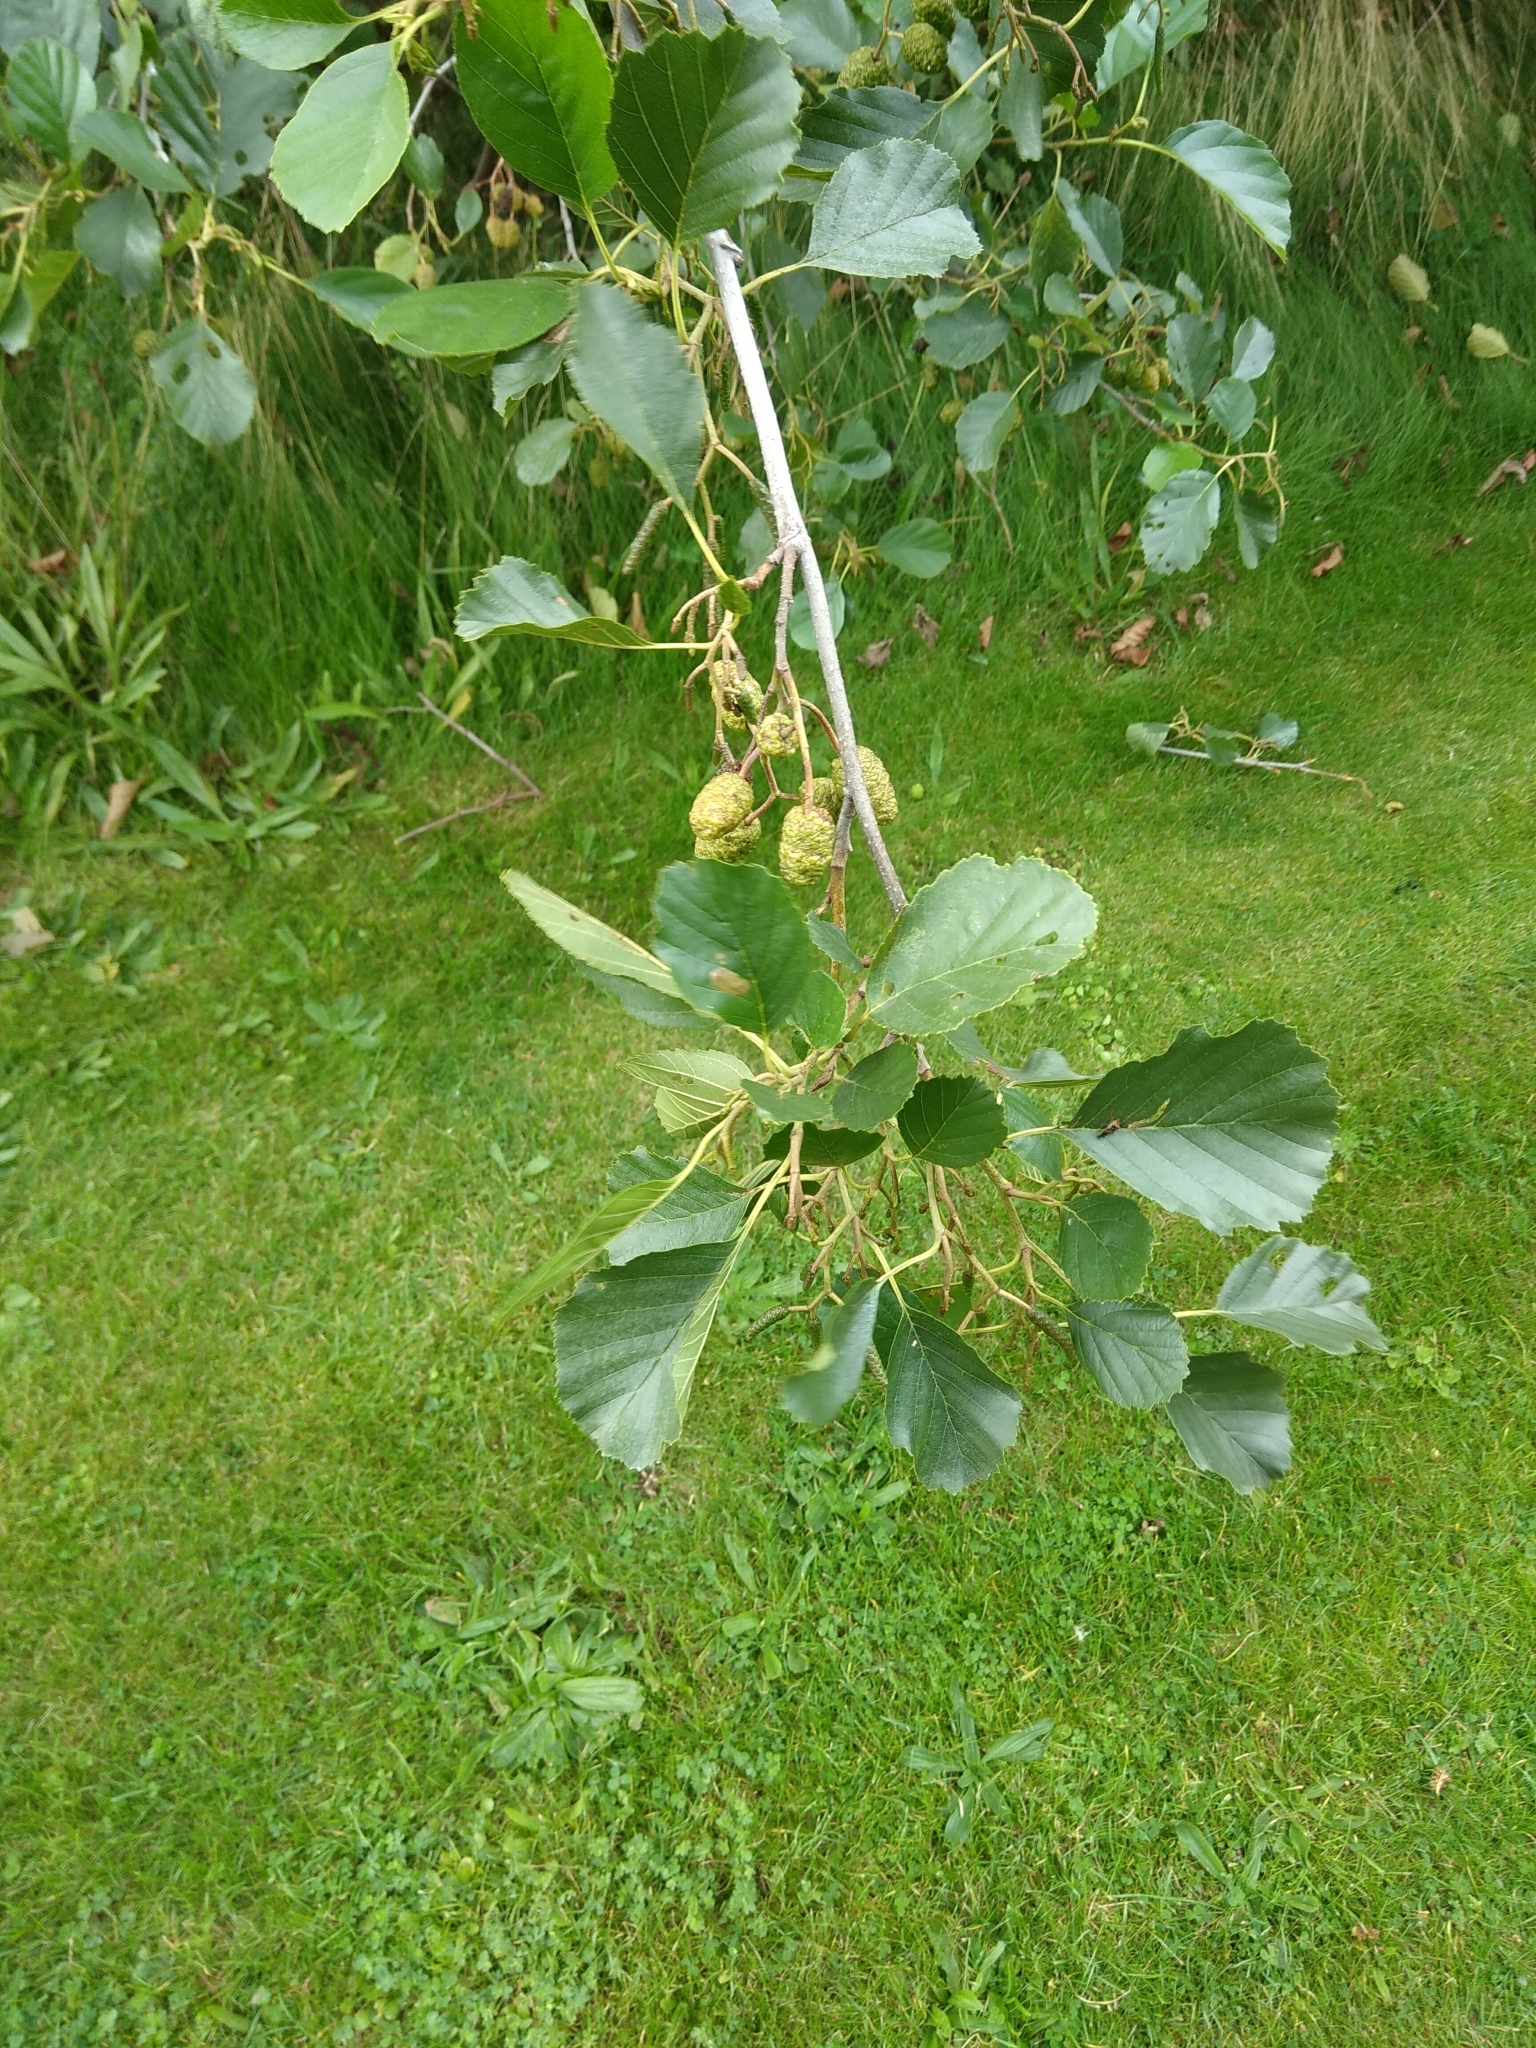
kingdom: Plantae
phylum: Tracheophyta
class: Magnoliopsida
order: Fagales
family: Betulaceae
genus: Alnus
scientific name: Alnus glutinosa
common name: Black alder
